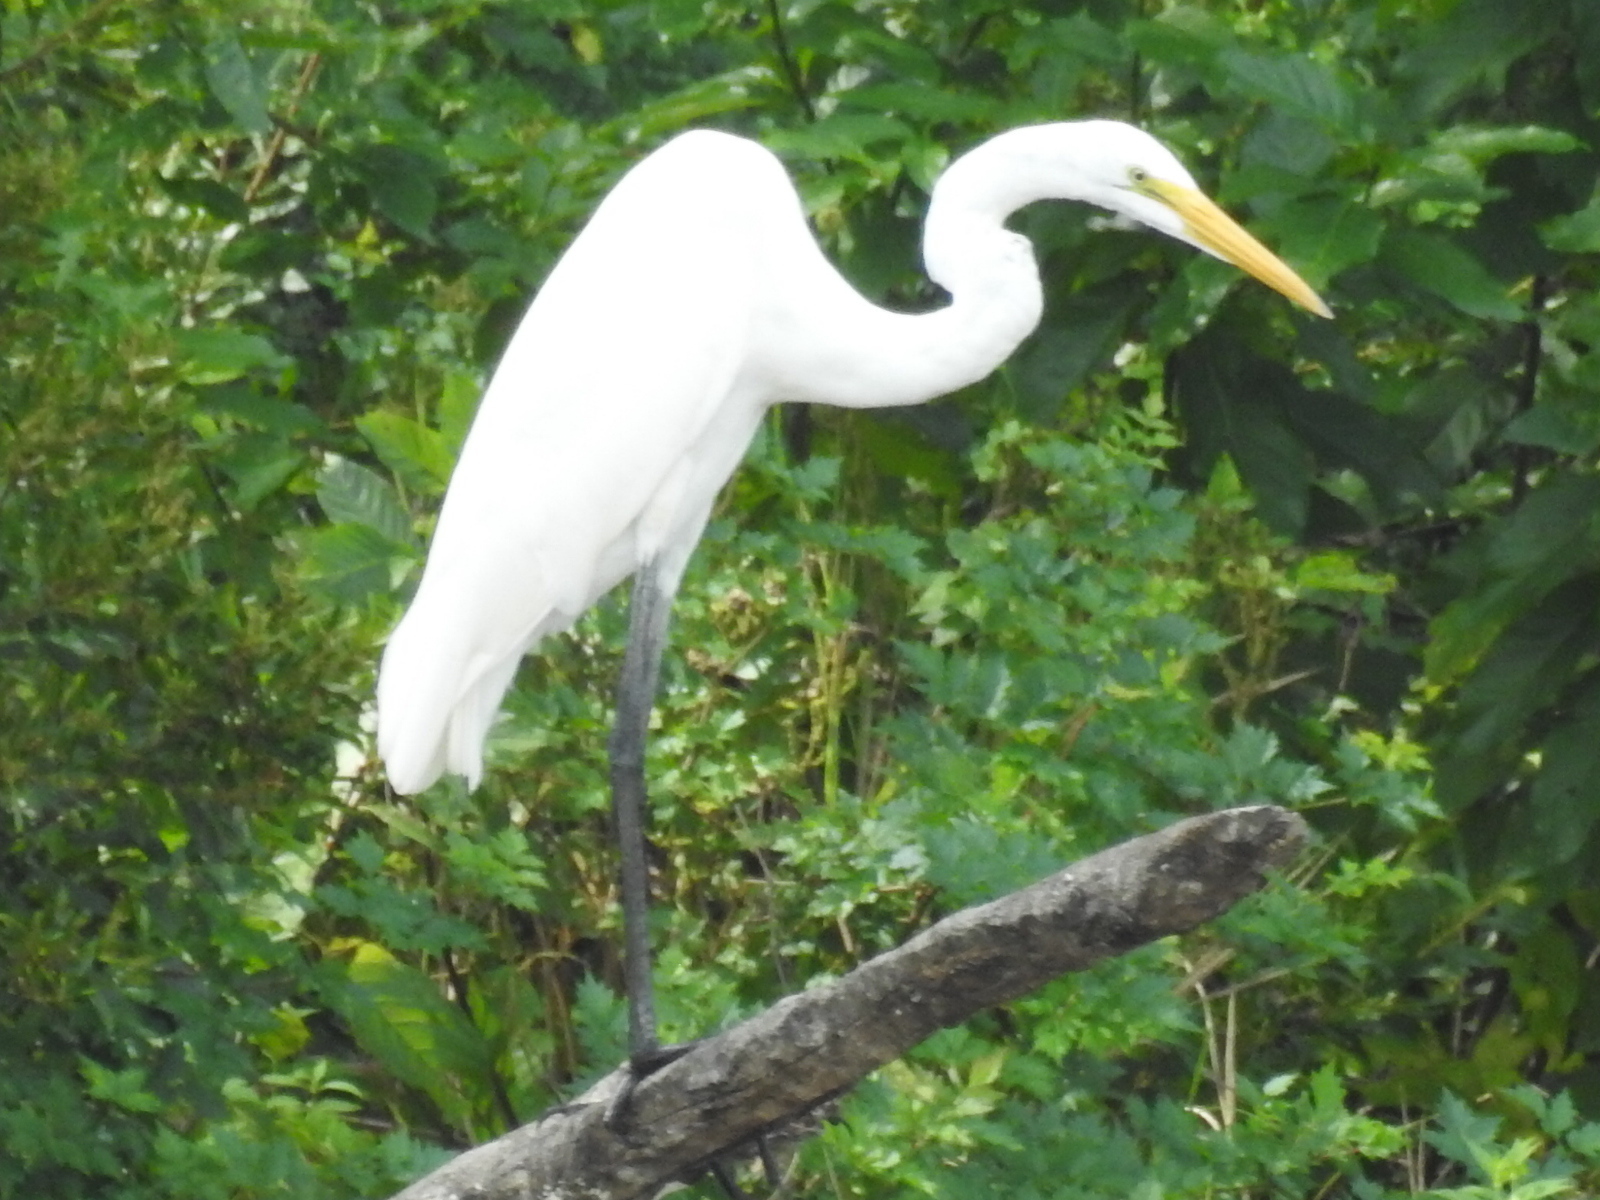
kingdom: Animalia
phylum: Chordata
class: Aves
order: Pelecaniformes
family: Ardeidae
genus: Ardea
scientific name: Ardea alba
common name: Great egret
